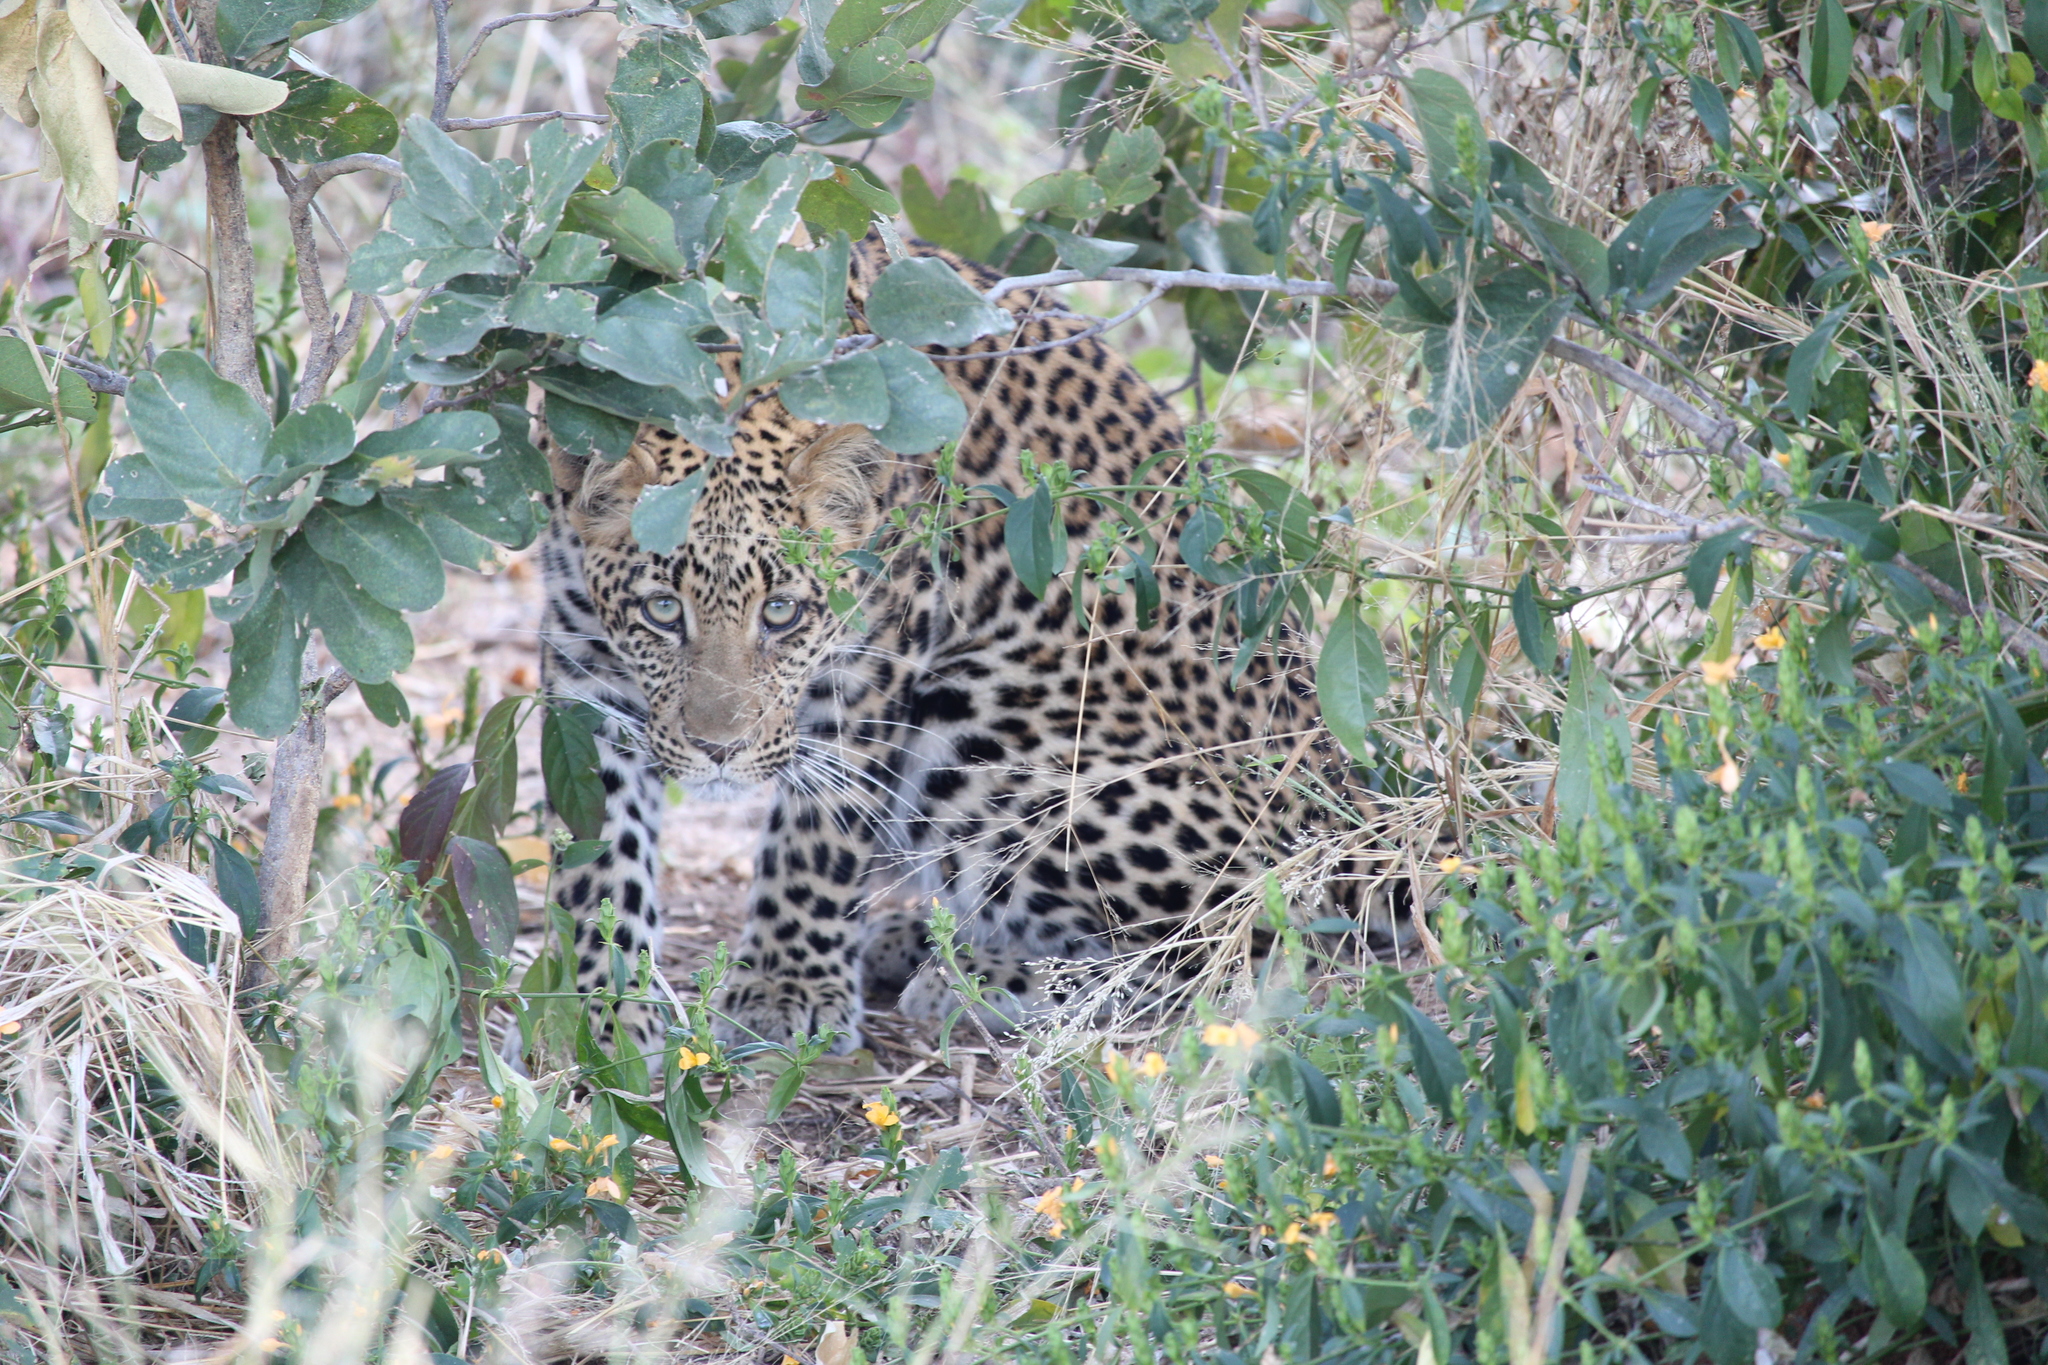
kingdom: Animalia
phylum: Chordata
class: Mammalia
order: Carnivora
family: Felidae
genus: Panthera
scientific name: Panthera pardus
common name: Leopard
